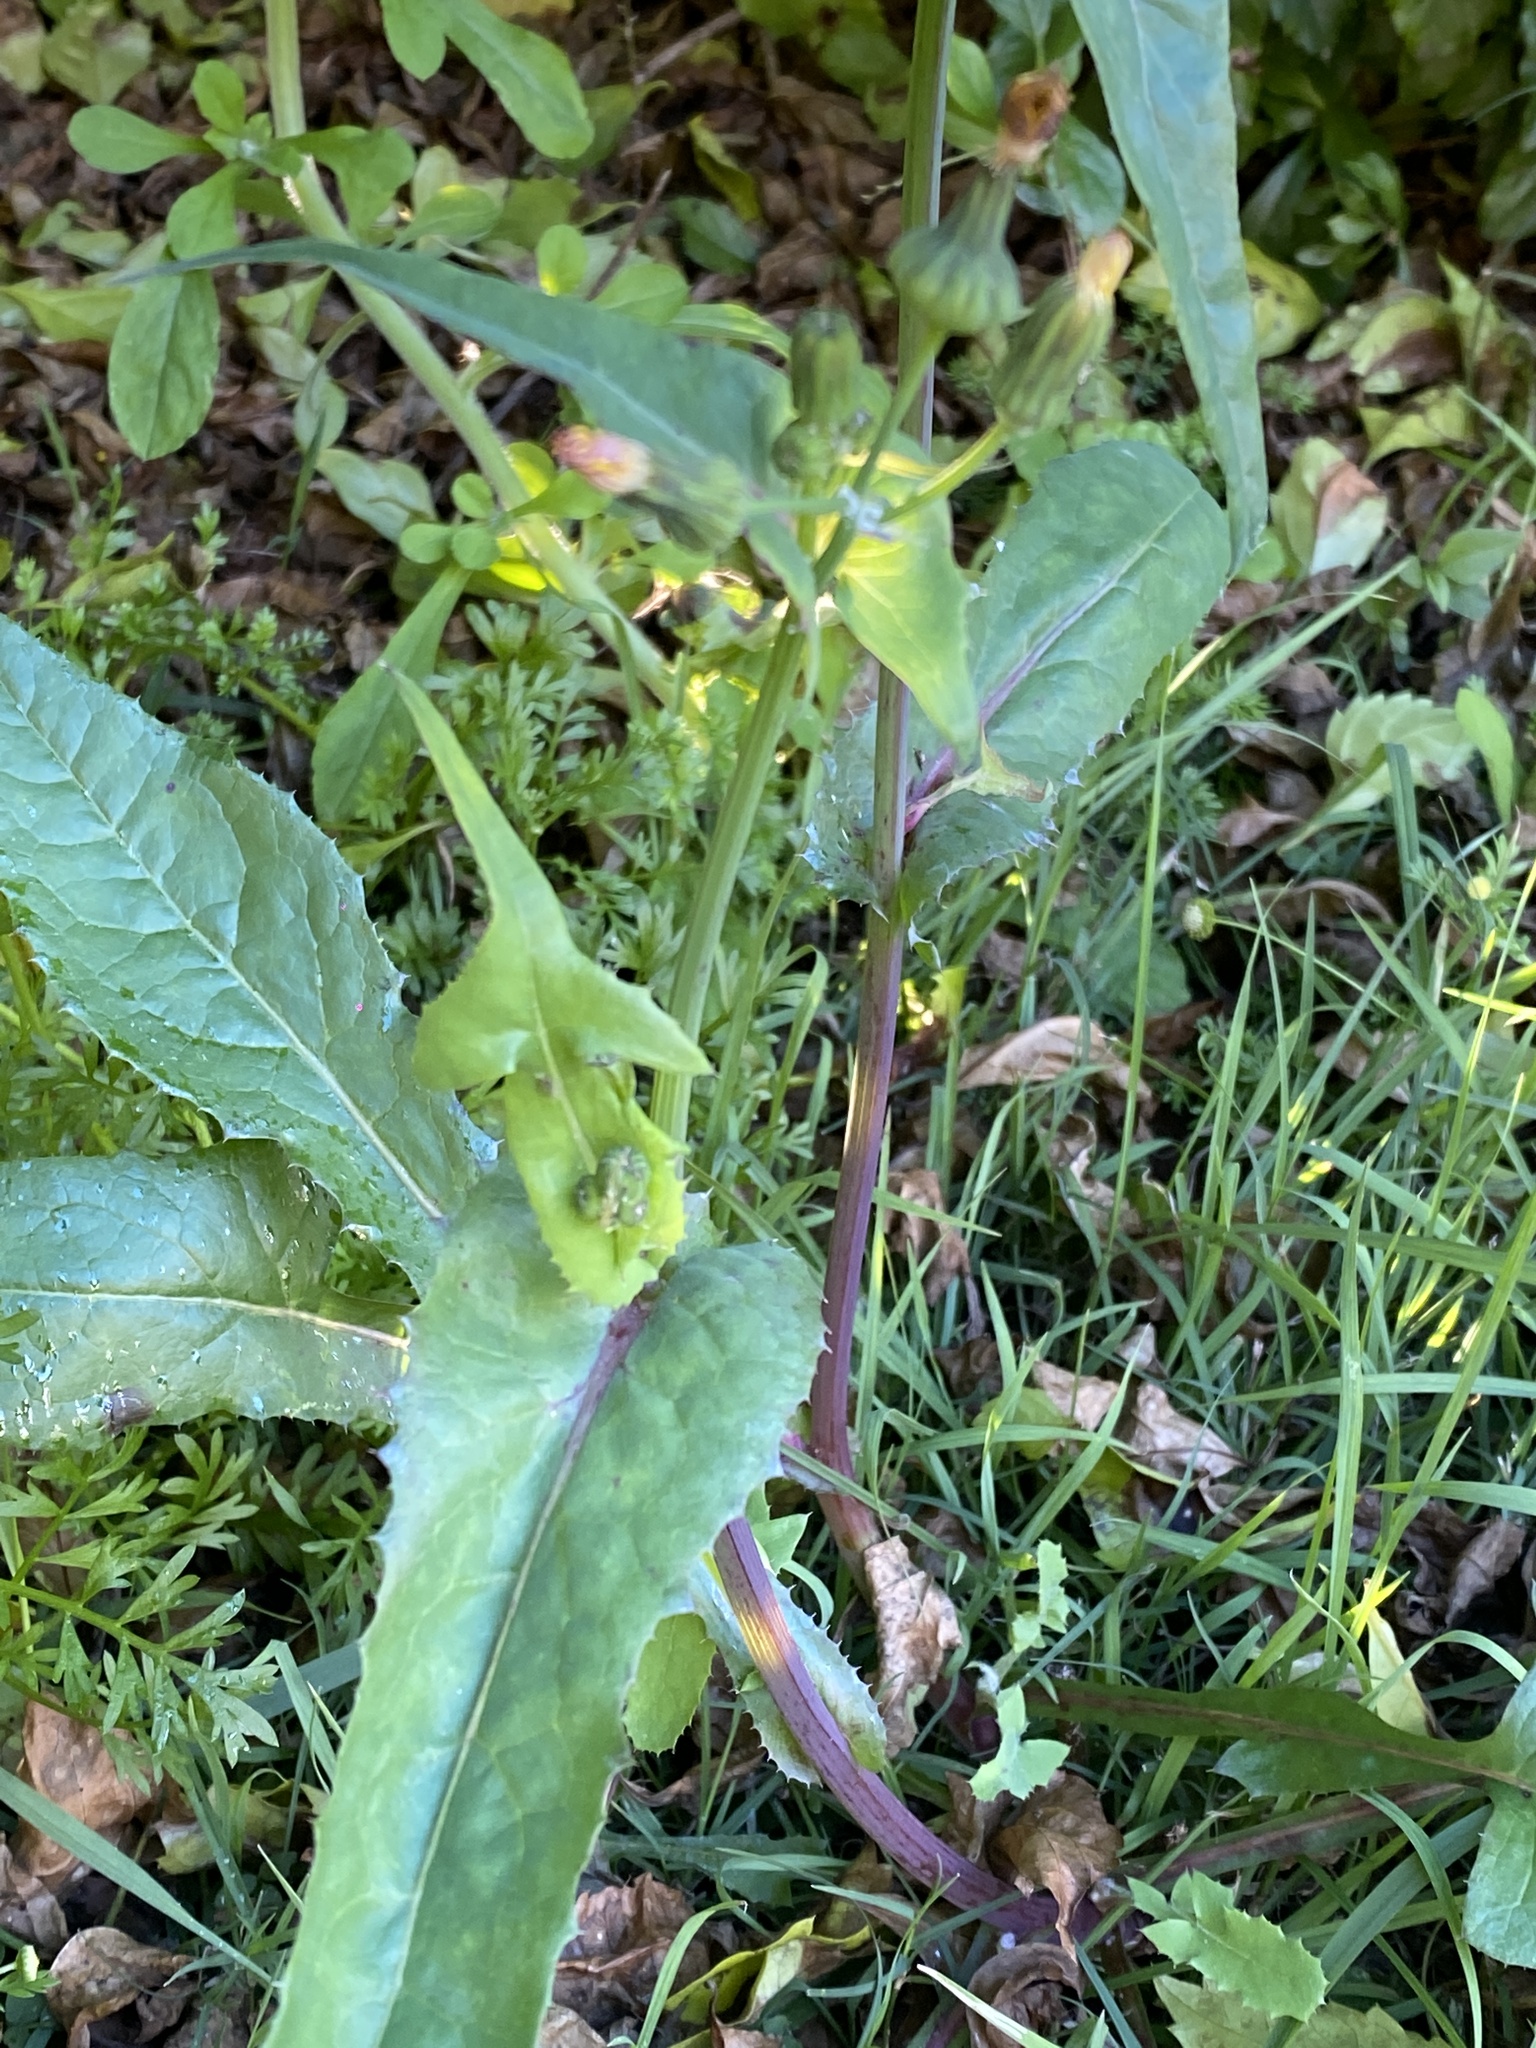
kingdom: Plantae
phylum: Tracheophyta
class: Magnoliopsida
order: Asterales
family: Asteraceae
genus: Sonchus
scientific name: Sonchus oleraceus
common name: Common sowthistle
